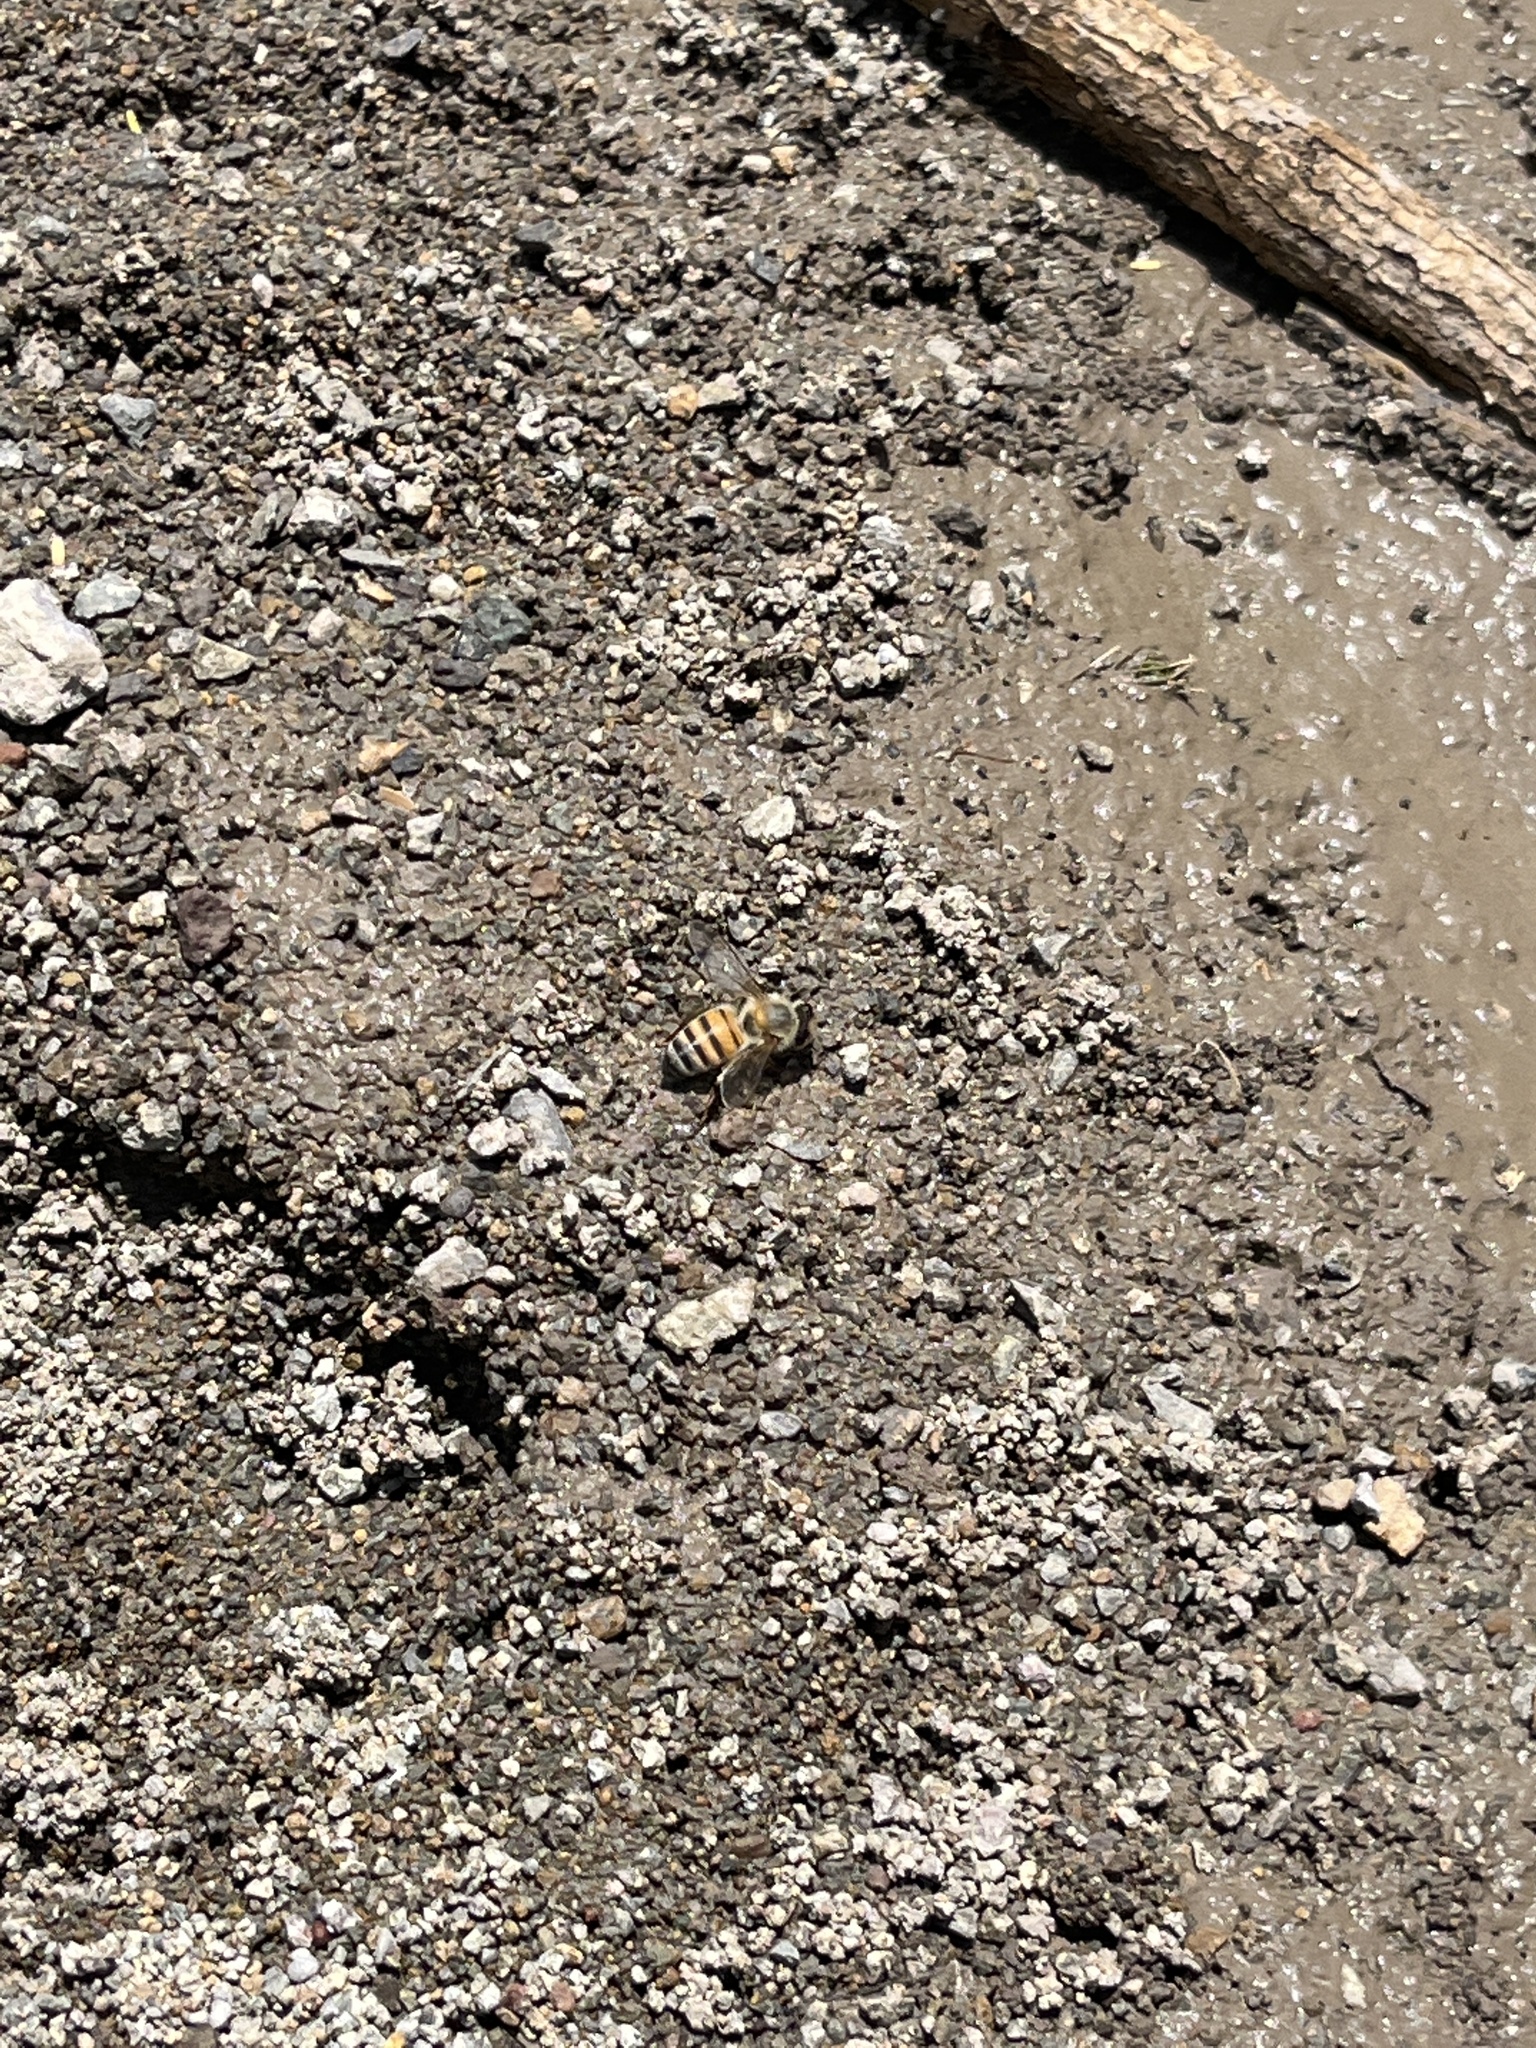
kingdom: Animalia
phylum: Arthropoda
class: Insecta
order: Hymenoptera
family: Apidae
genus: Apis
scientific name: Apis mellifera
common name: Honey bee
